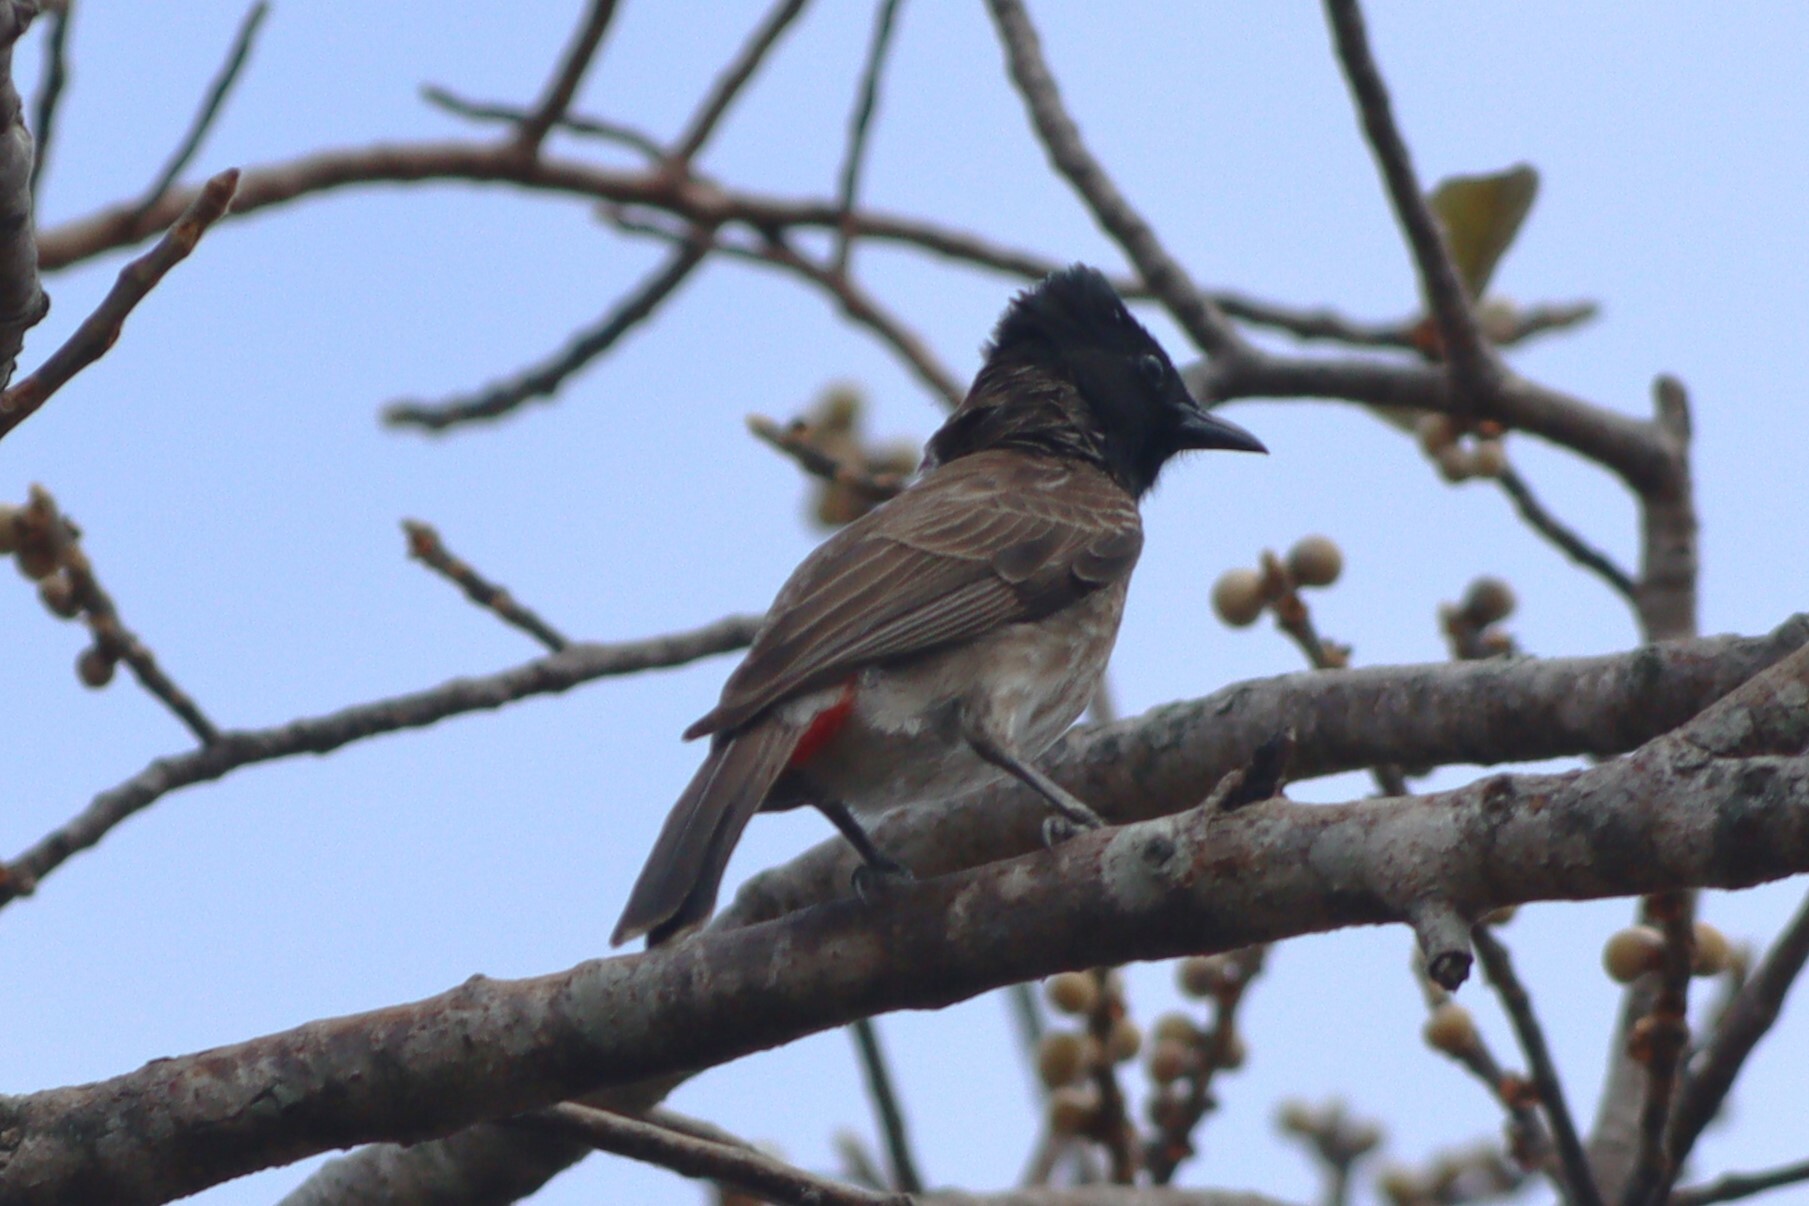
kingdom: Animalia
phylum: Chordata
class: Aves
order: Passeriformes
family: Pycnonotidae
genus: Pycnonotus
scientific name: Pycnonotus cafer
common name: Red-vented bulbul
